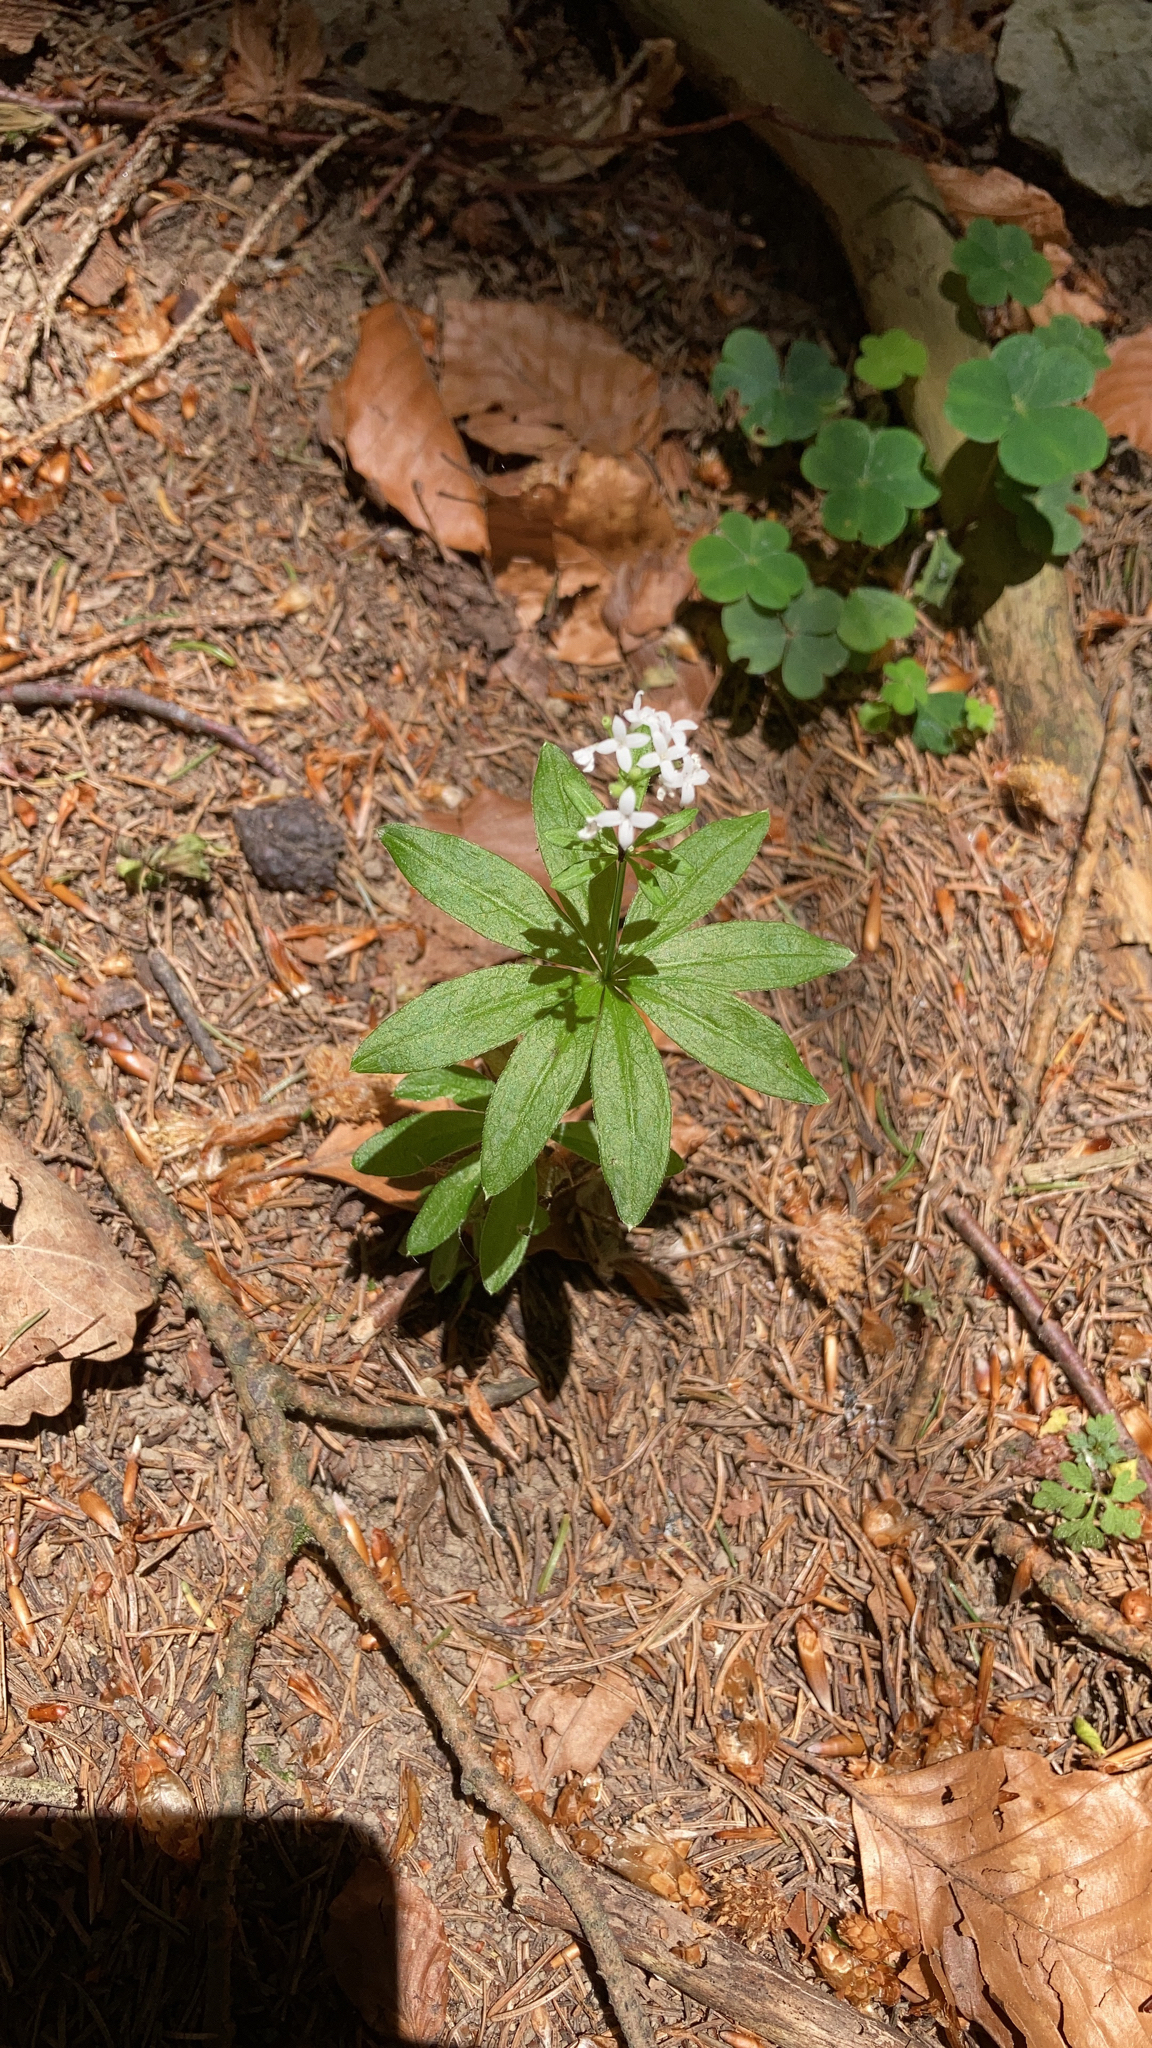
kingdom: Plantae
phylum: Tracheophyta
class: Magnoliopsida
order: Gentianales
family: Rubiaceae
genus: Galium
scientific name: Galium odoratum
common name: Sweet woodruff
